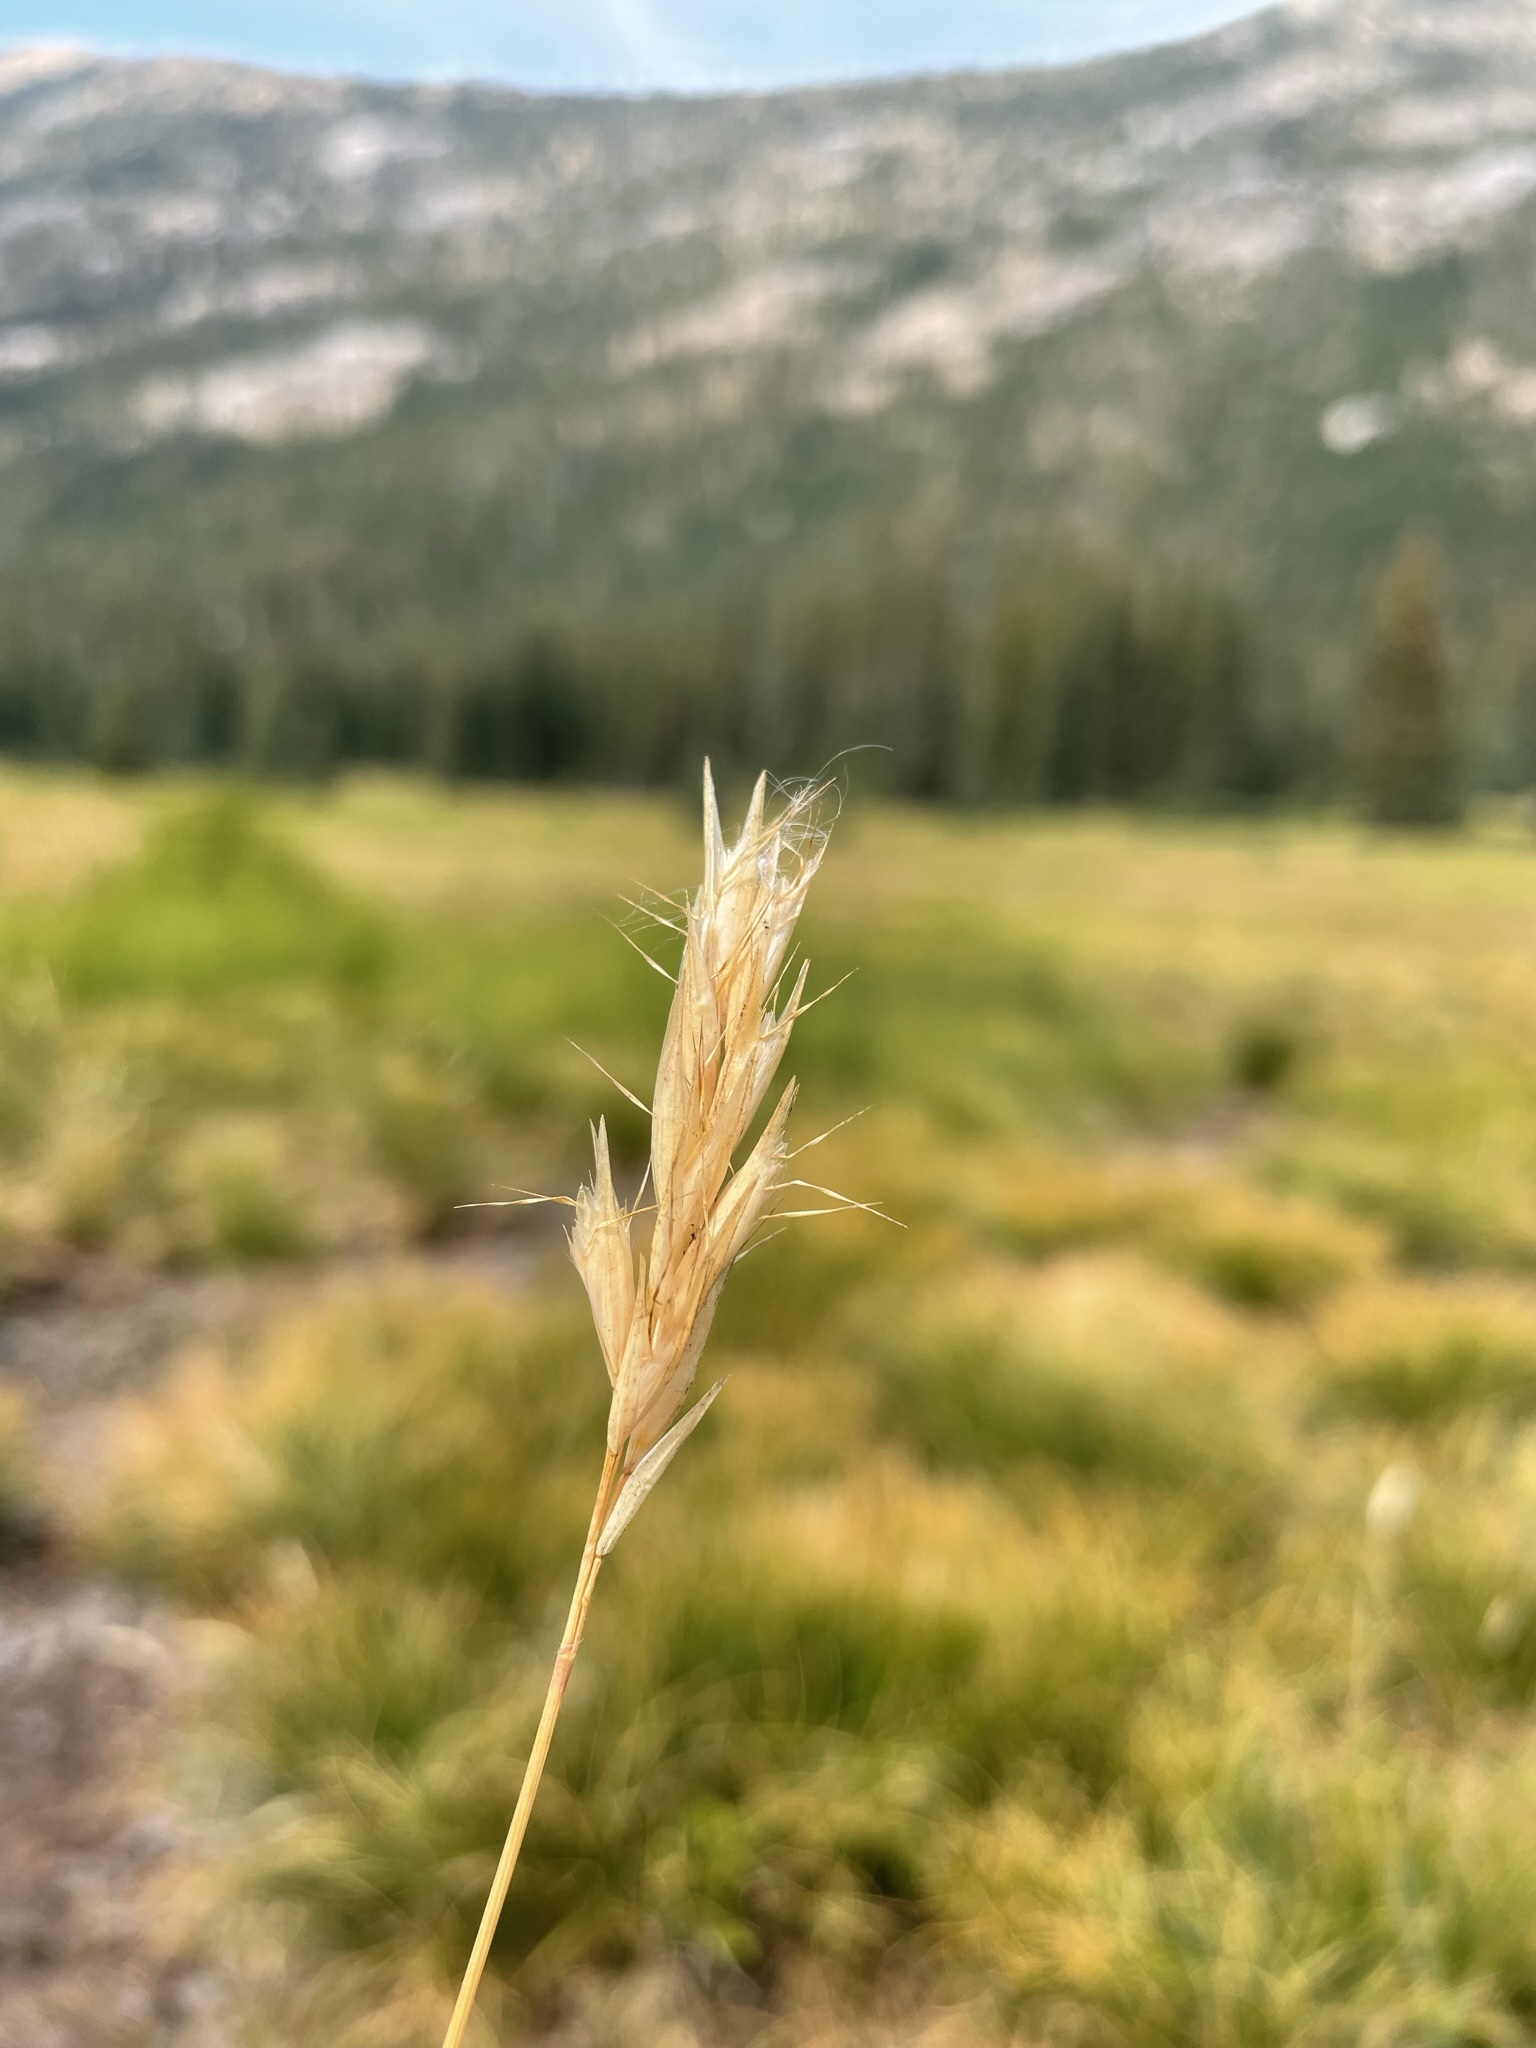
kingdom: Plantae
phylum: Tracheophyta
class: Liliopsida
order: Poales
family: Poaceae
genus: Danthonia
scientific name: Danthonia intermedia
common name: Intermediate oat grass
